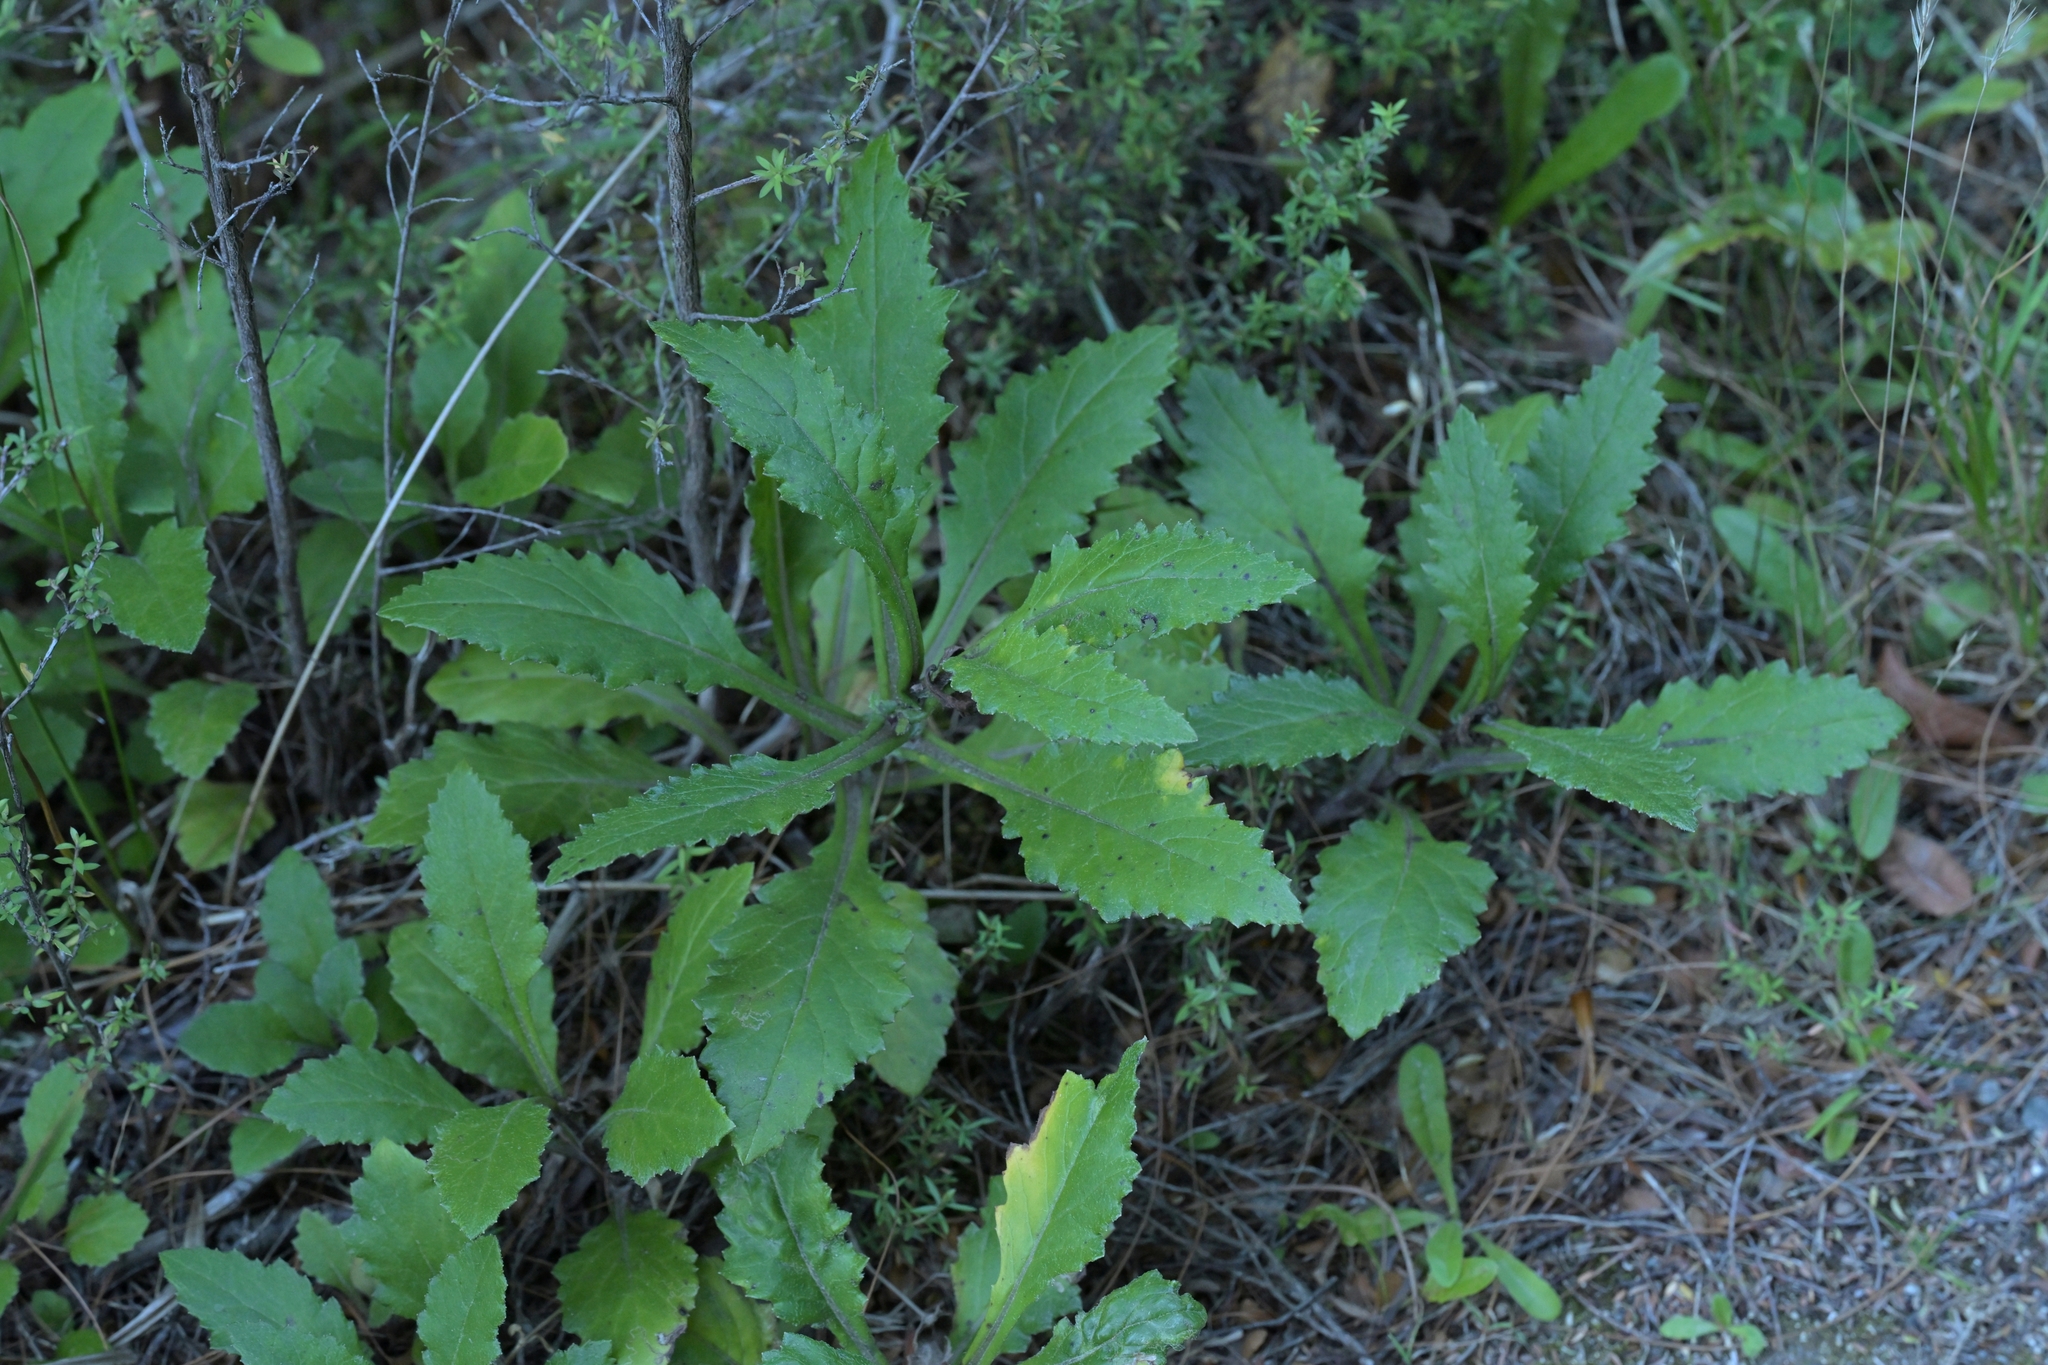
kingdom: Plantae
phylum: Tracheophyta
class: Magnoliopsida
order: Asterales
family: Asteraceae
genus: Senecio
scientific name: Senecio rufiglandulosus
